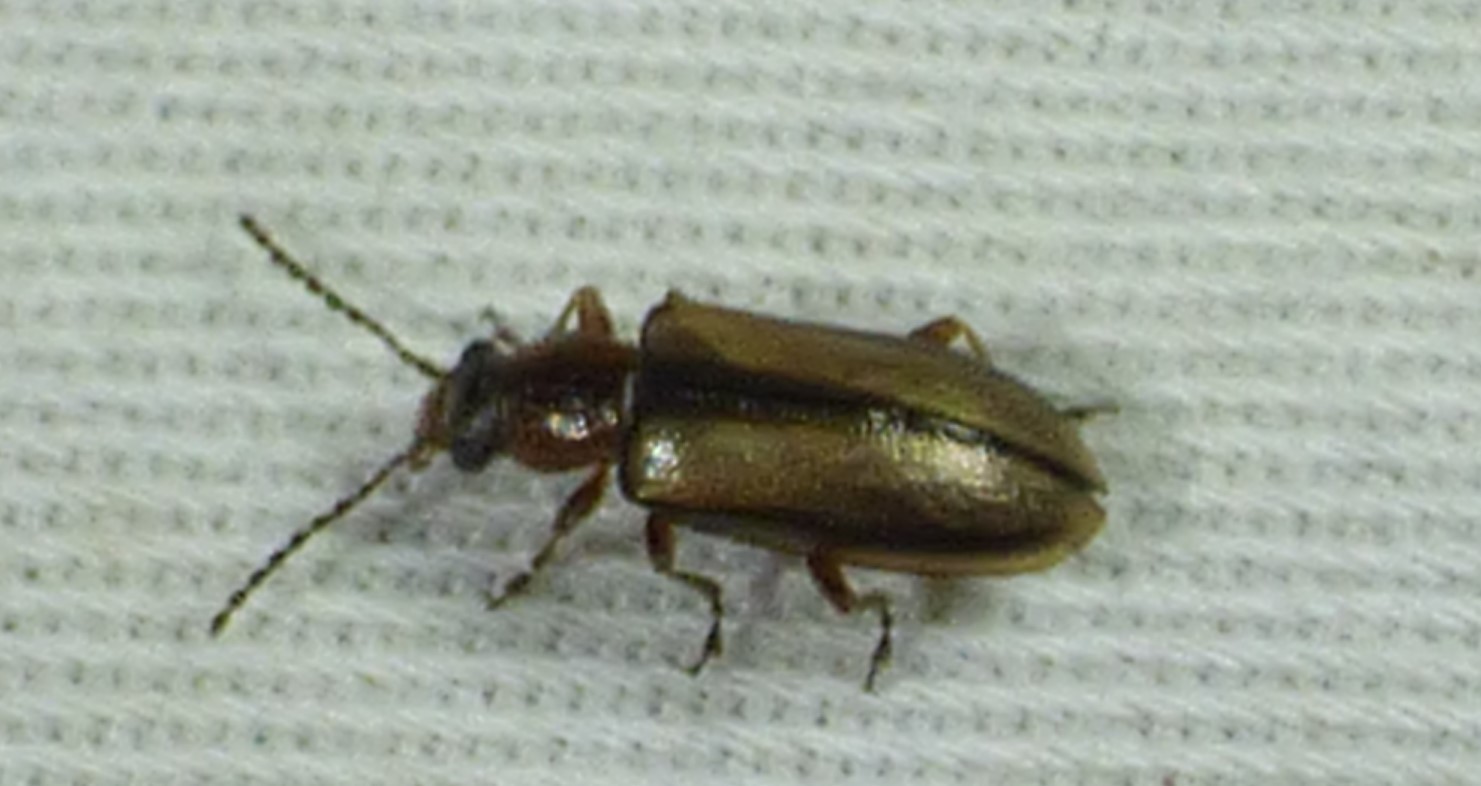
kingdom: Animalia
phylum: Arthropoda
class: Insecta
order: Coleoptera
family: Orsodacnidae
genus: Orsodacne
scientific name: Orsodacne atra
